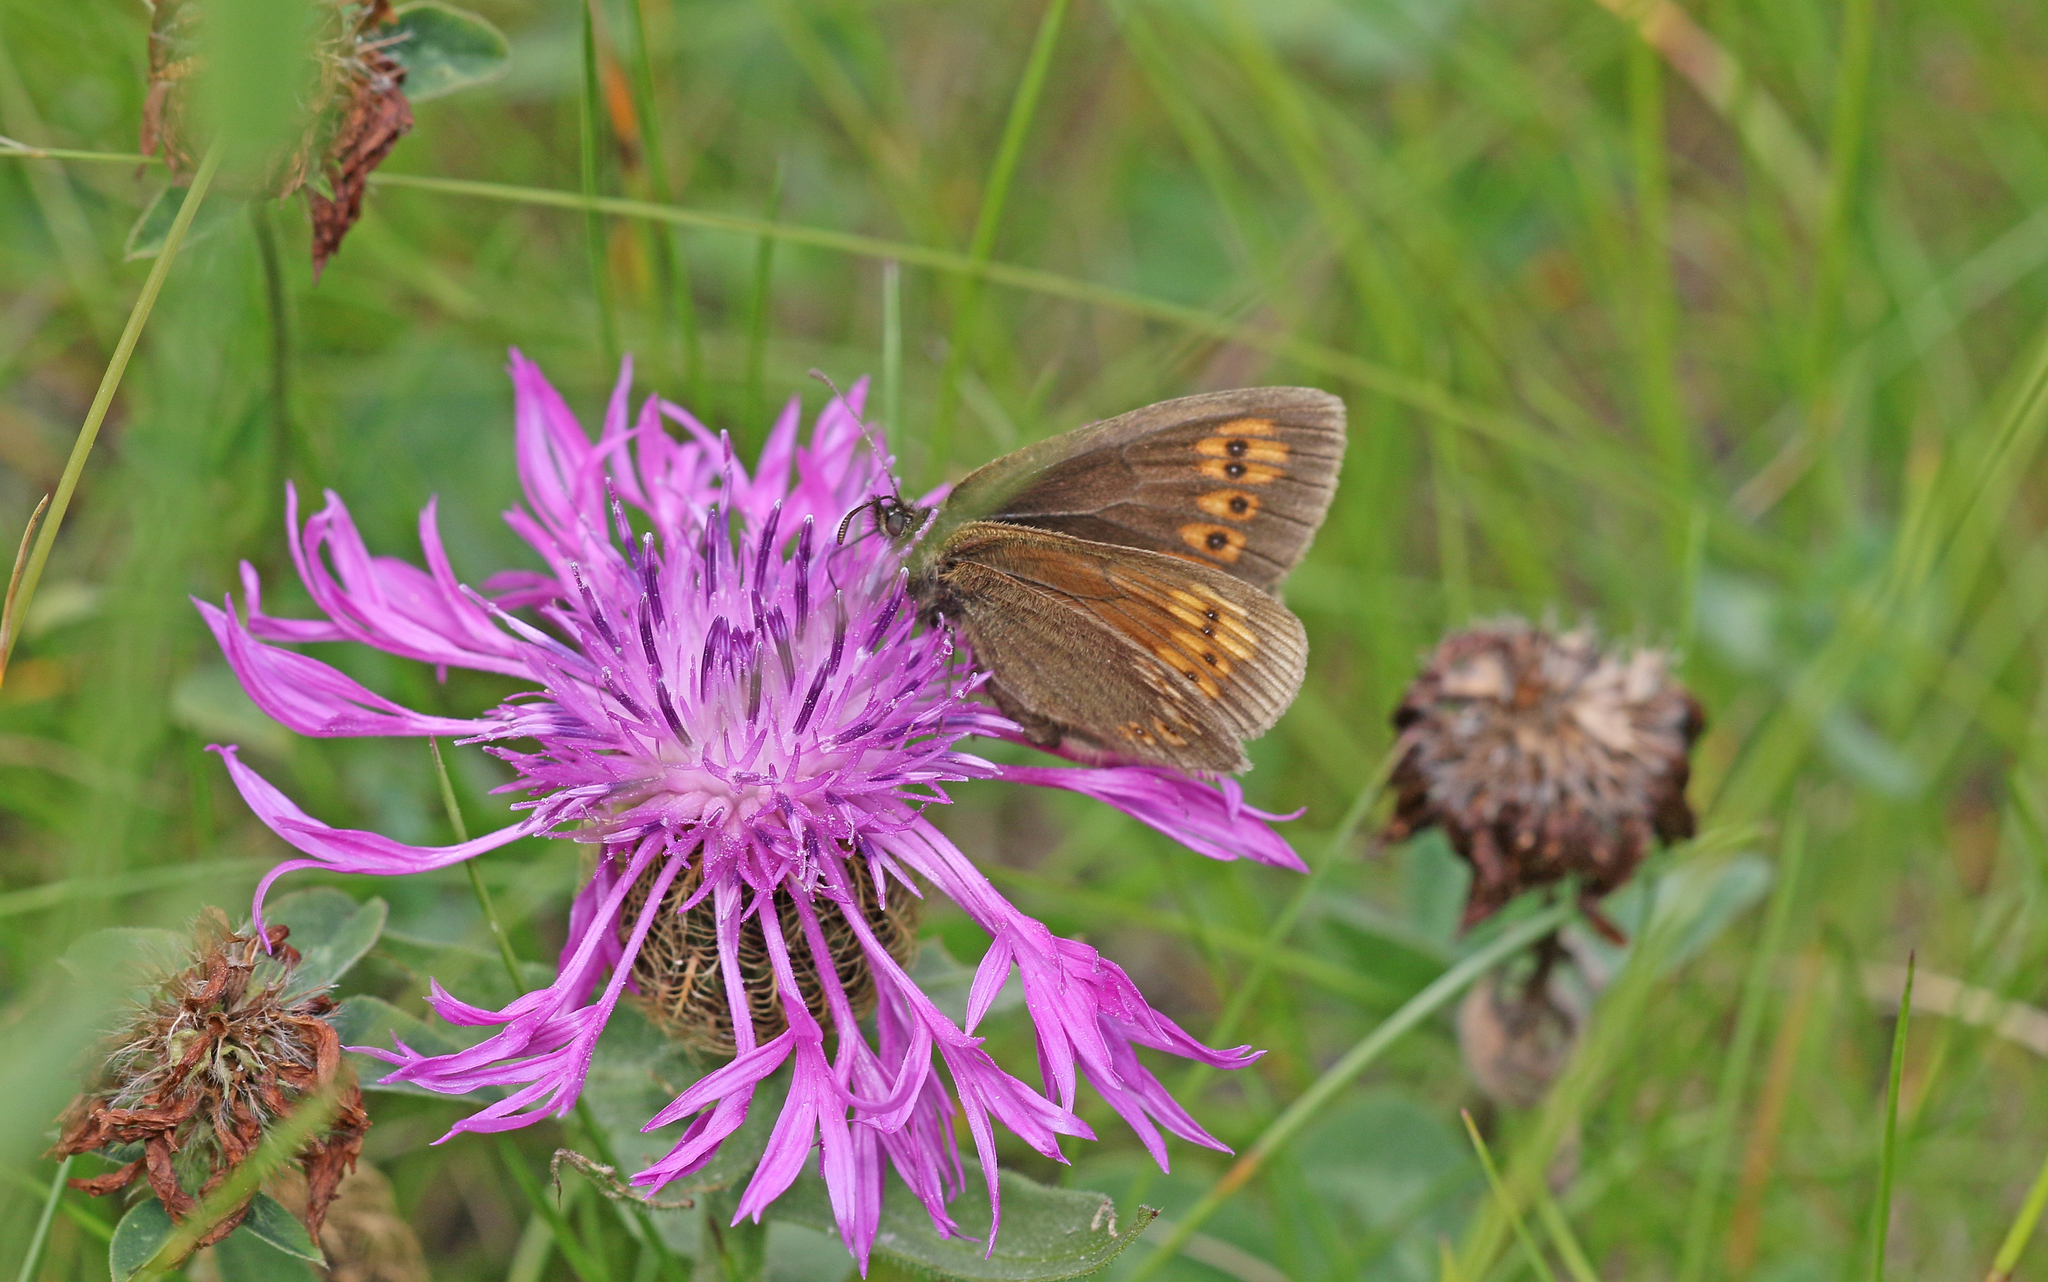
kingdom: Animalia
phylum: Arthropoda
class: Insecta
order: Lepidoptera
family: Nymphalidae
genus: Erebia
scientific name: Erebia alberganus
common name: Almond-eyed ringlet
